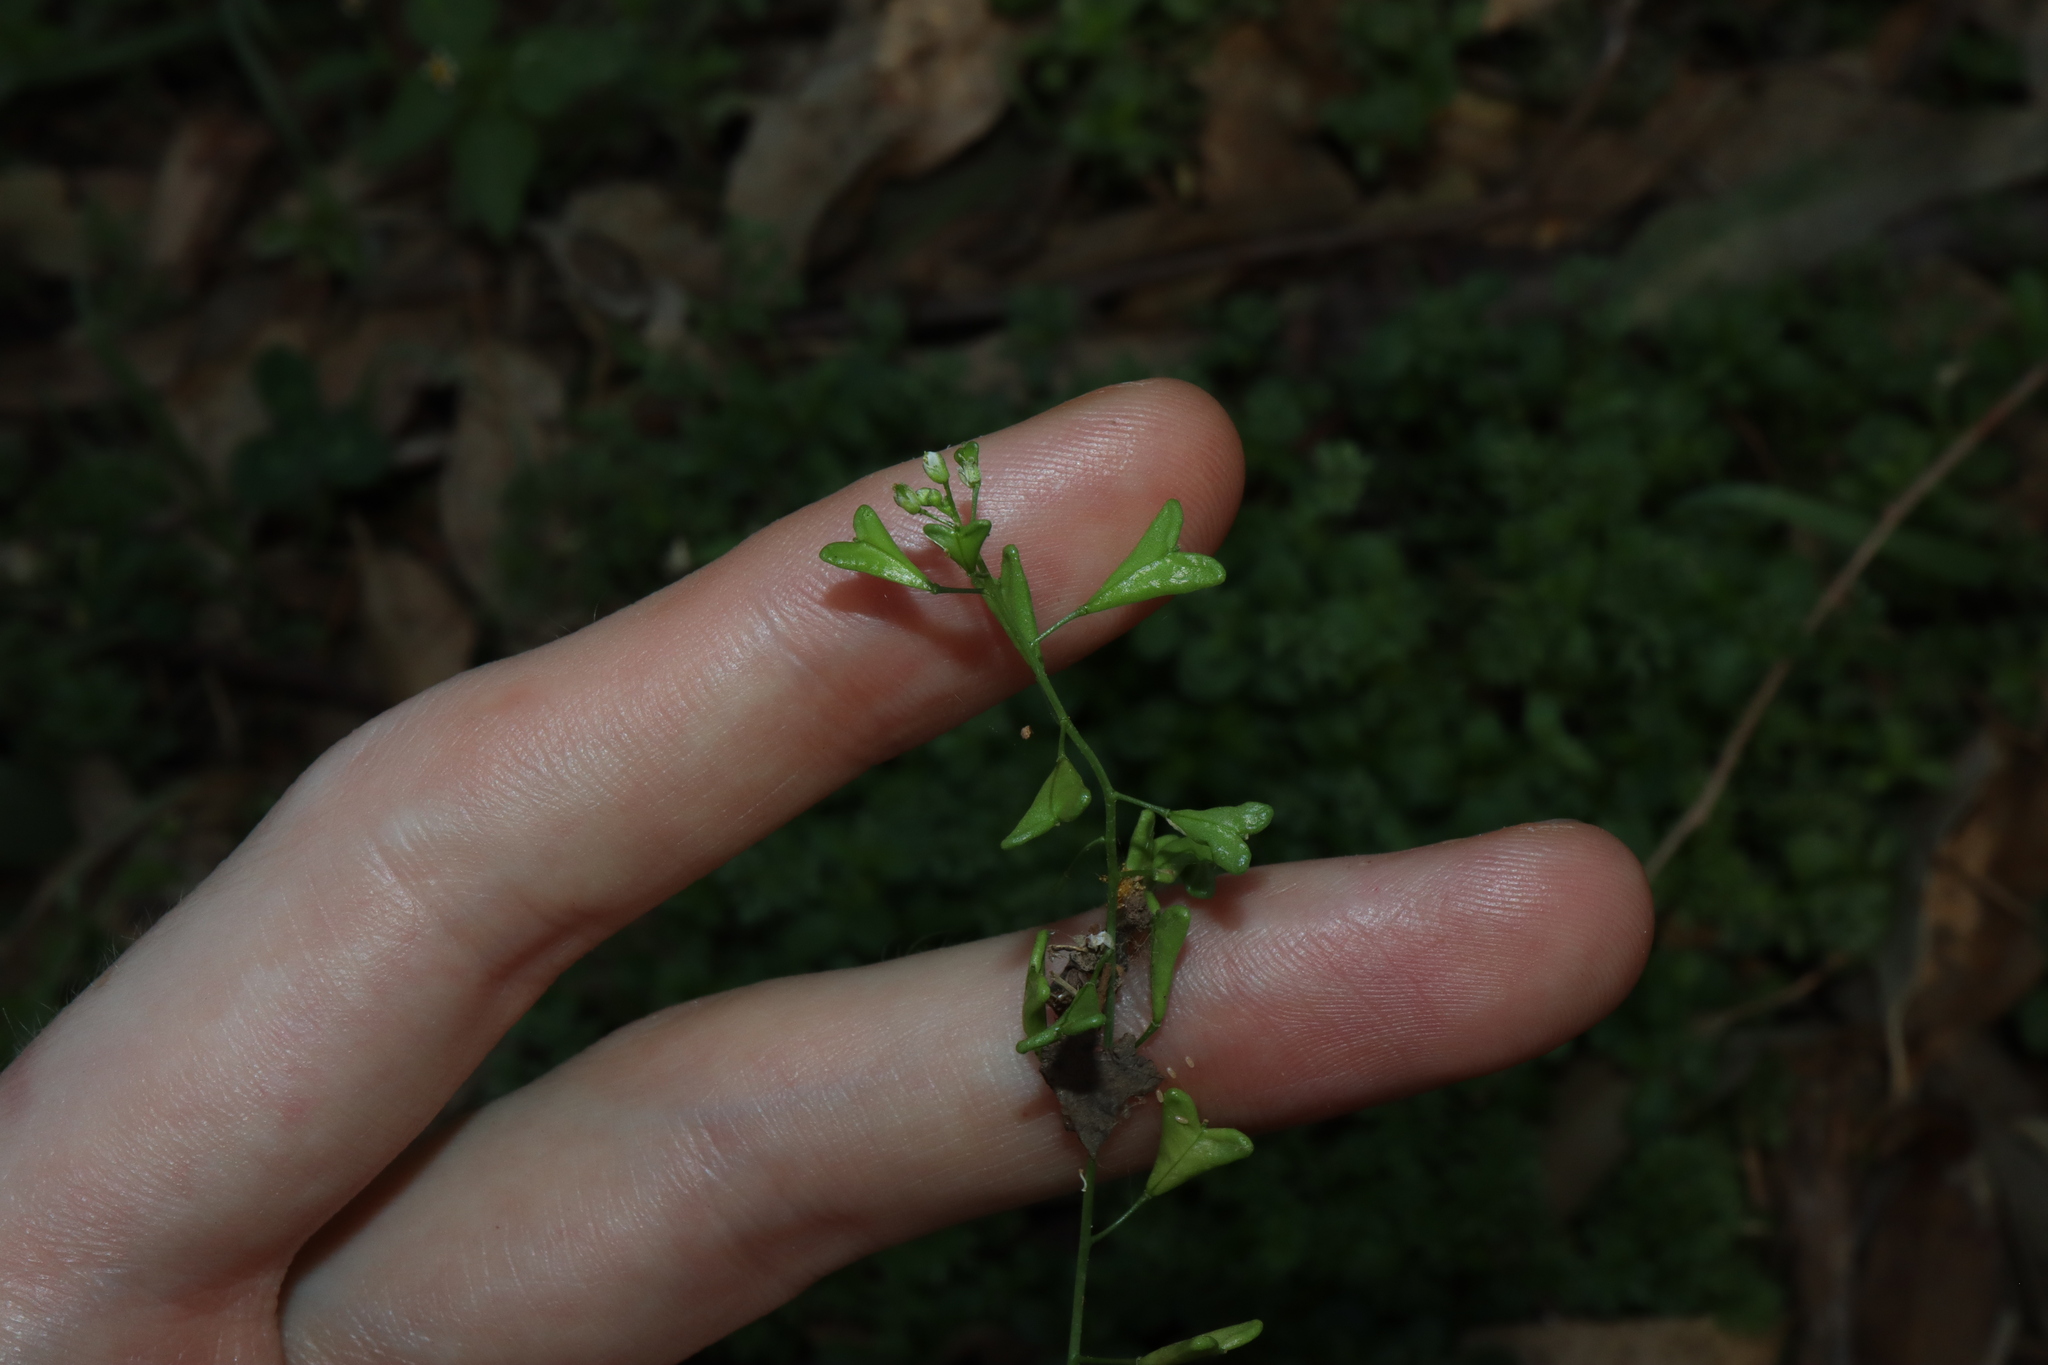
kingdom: Plantae
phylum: Tracheophyta
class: Magnoliopsida
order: Brassicales
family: Brassicaceae
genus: Capsella
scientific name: Capsella bursa-pastoris
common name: Shepherd's purse
